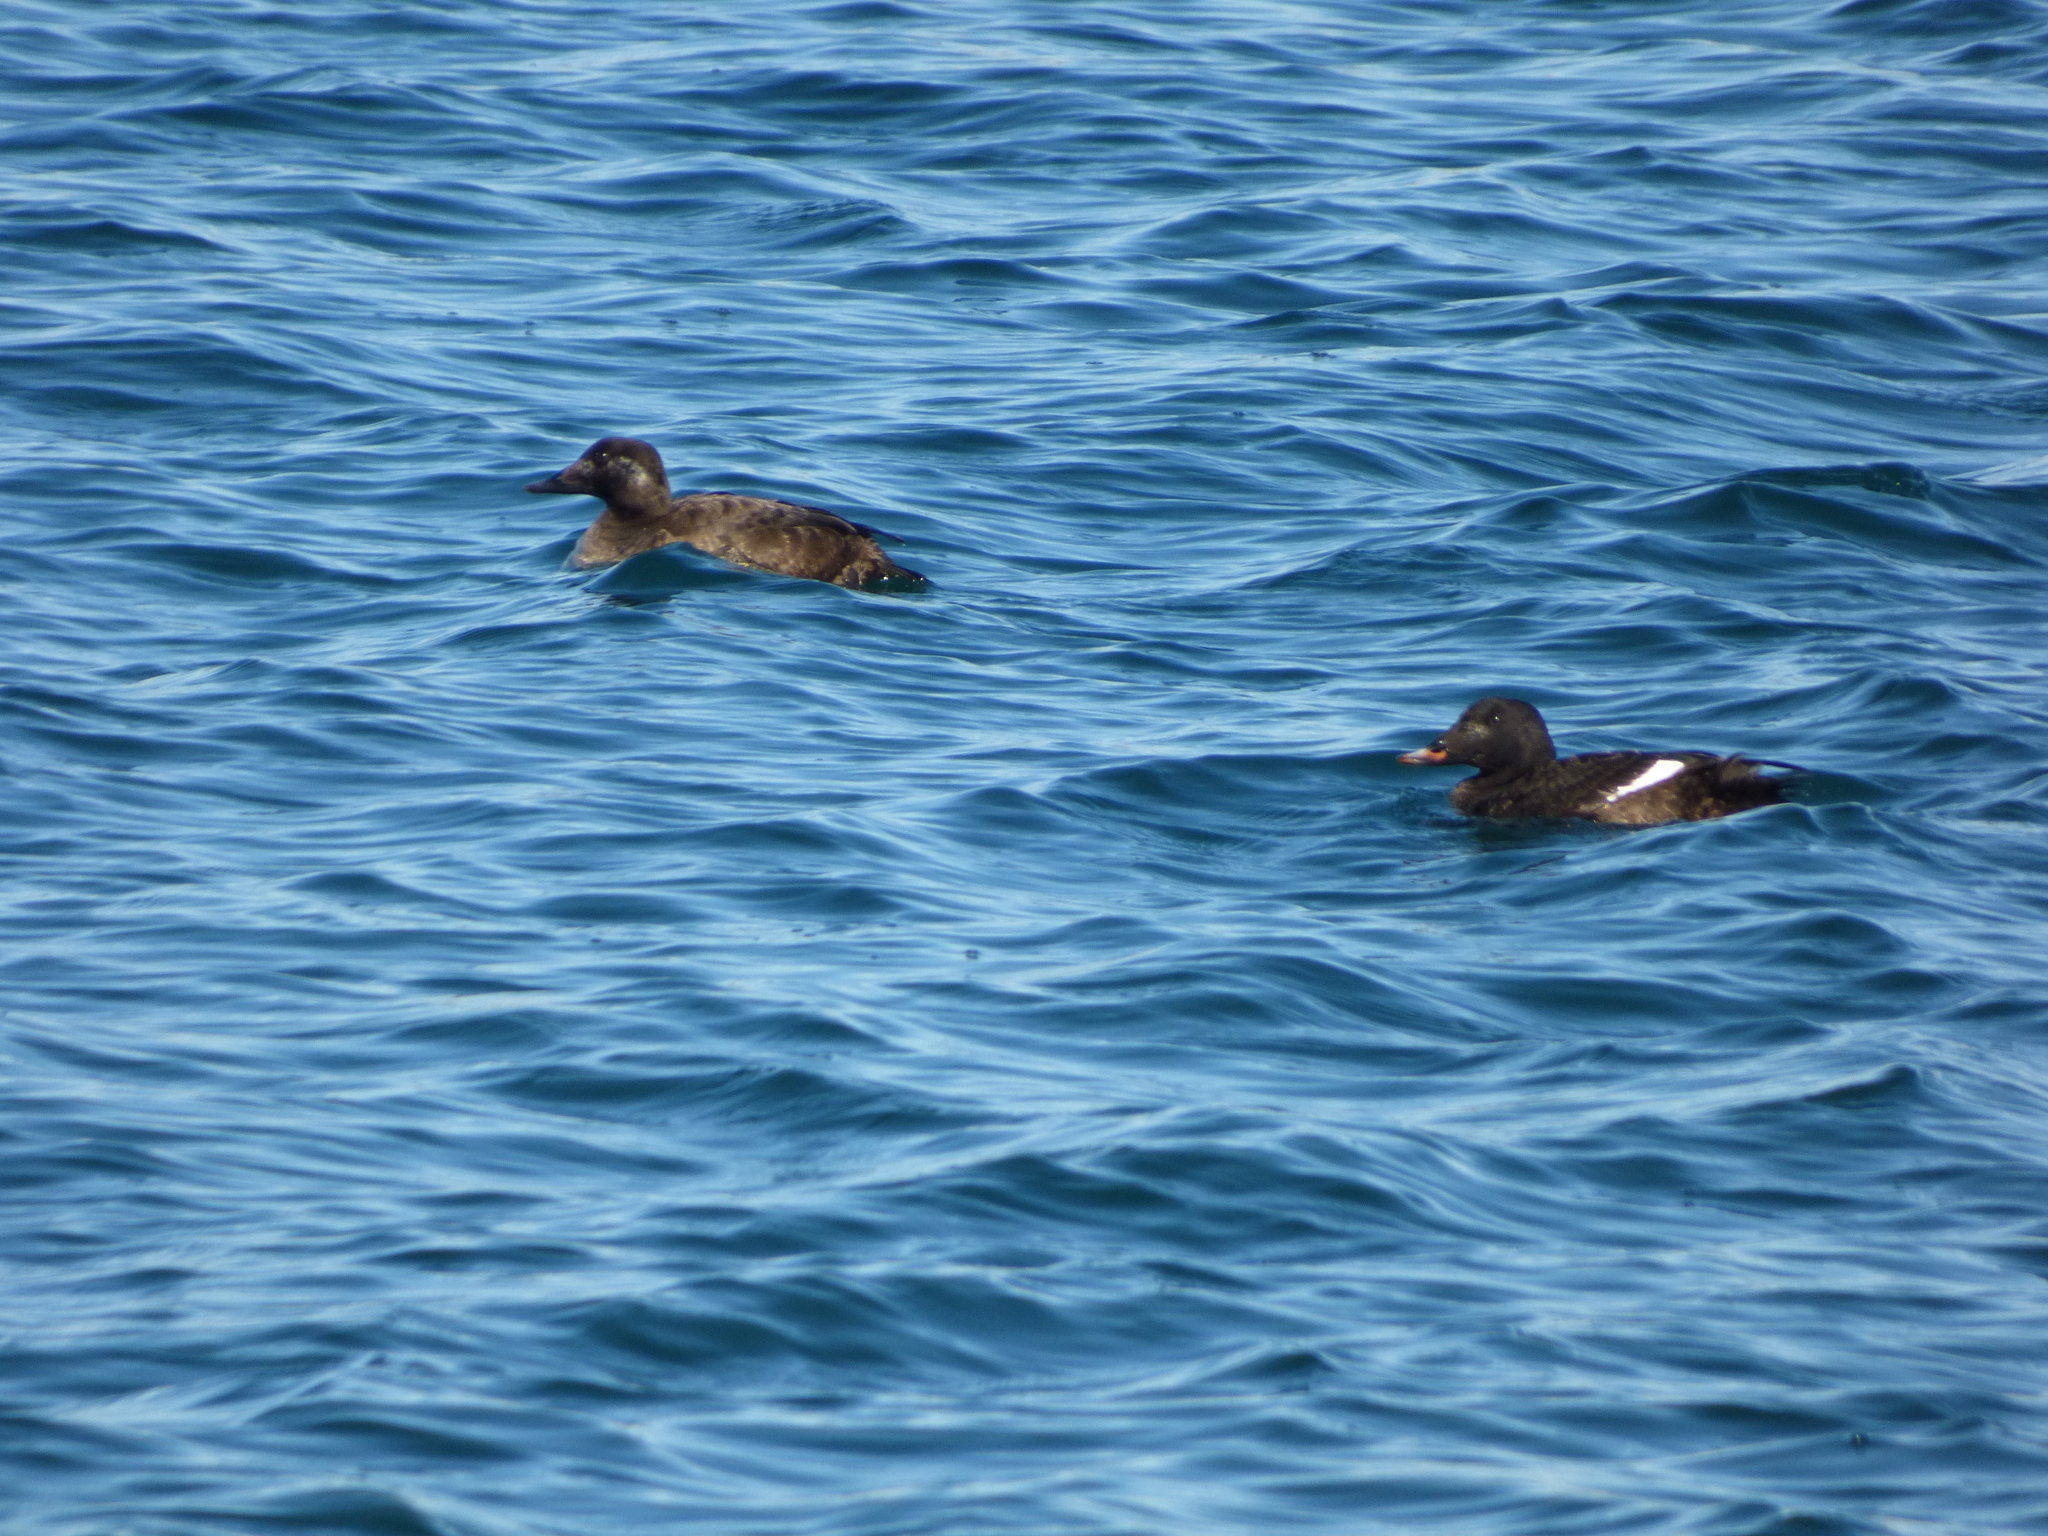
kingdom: Animalia
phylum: Chordata
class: Aves
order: Anseriformes
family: Anatidae
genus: Melanitta
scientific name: Melanitta deglandi
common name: White-winged scoter
